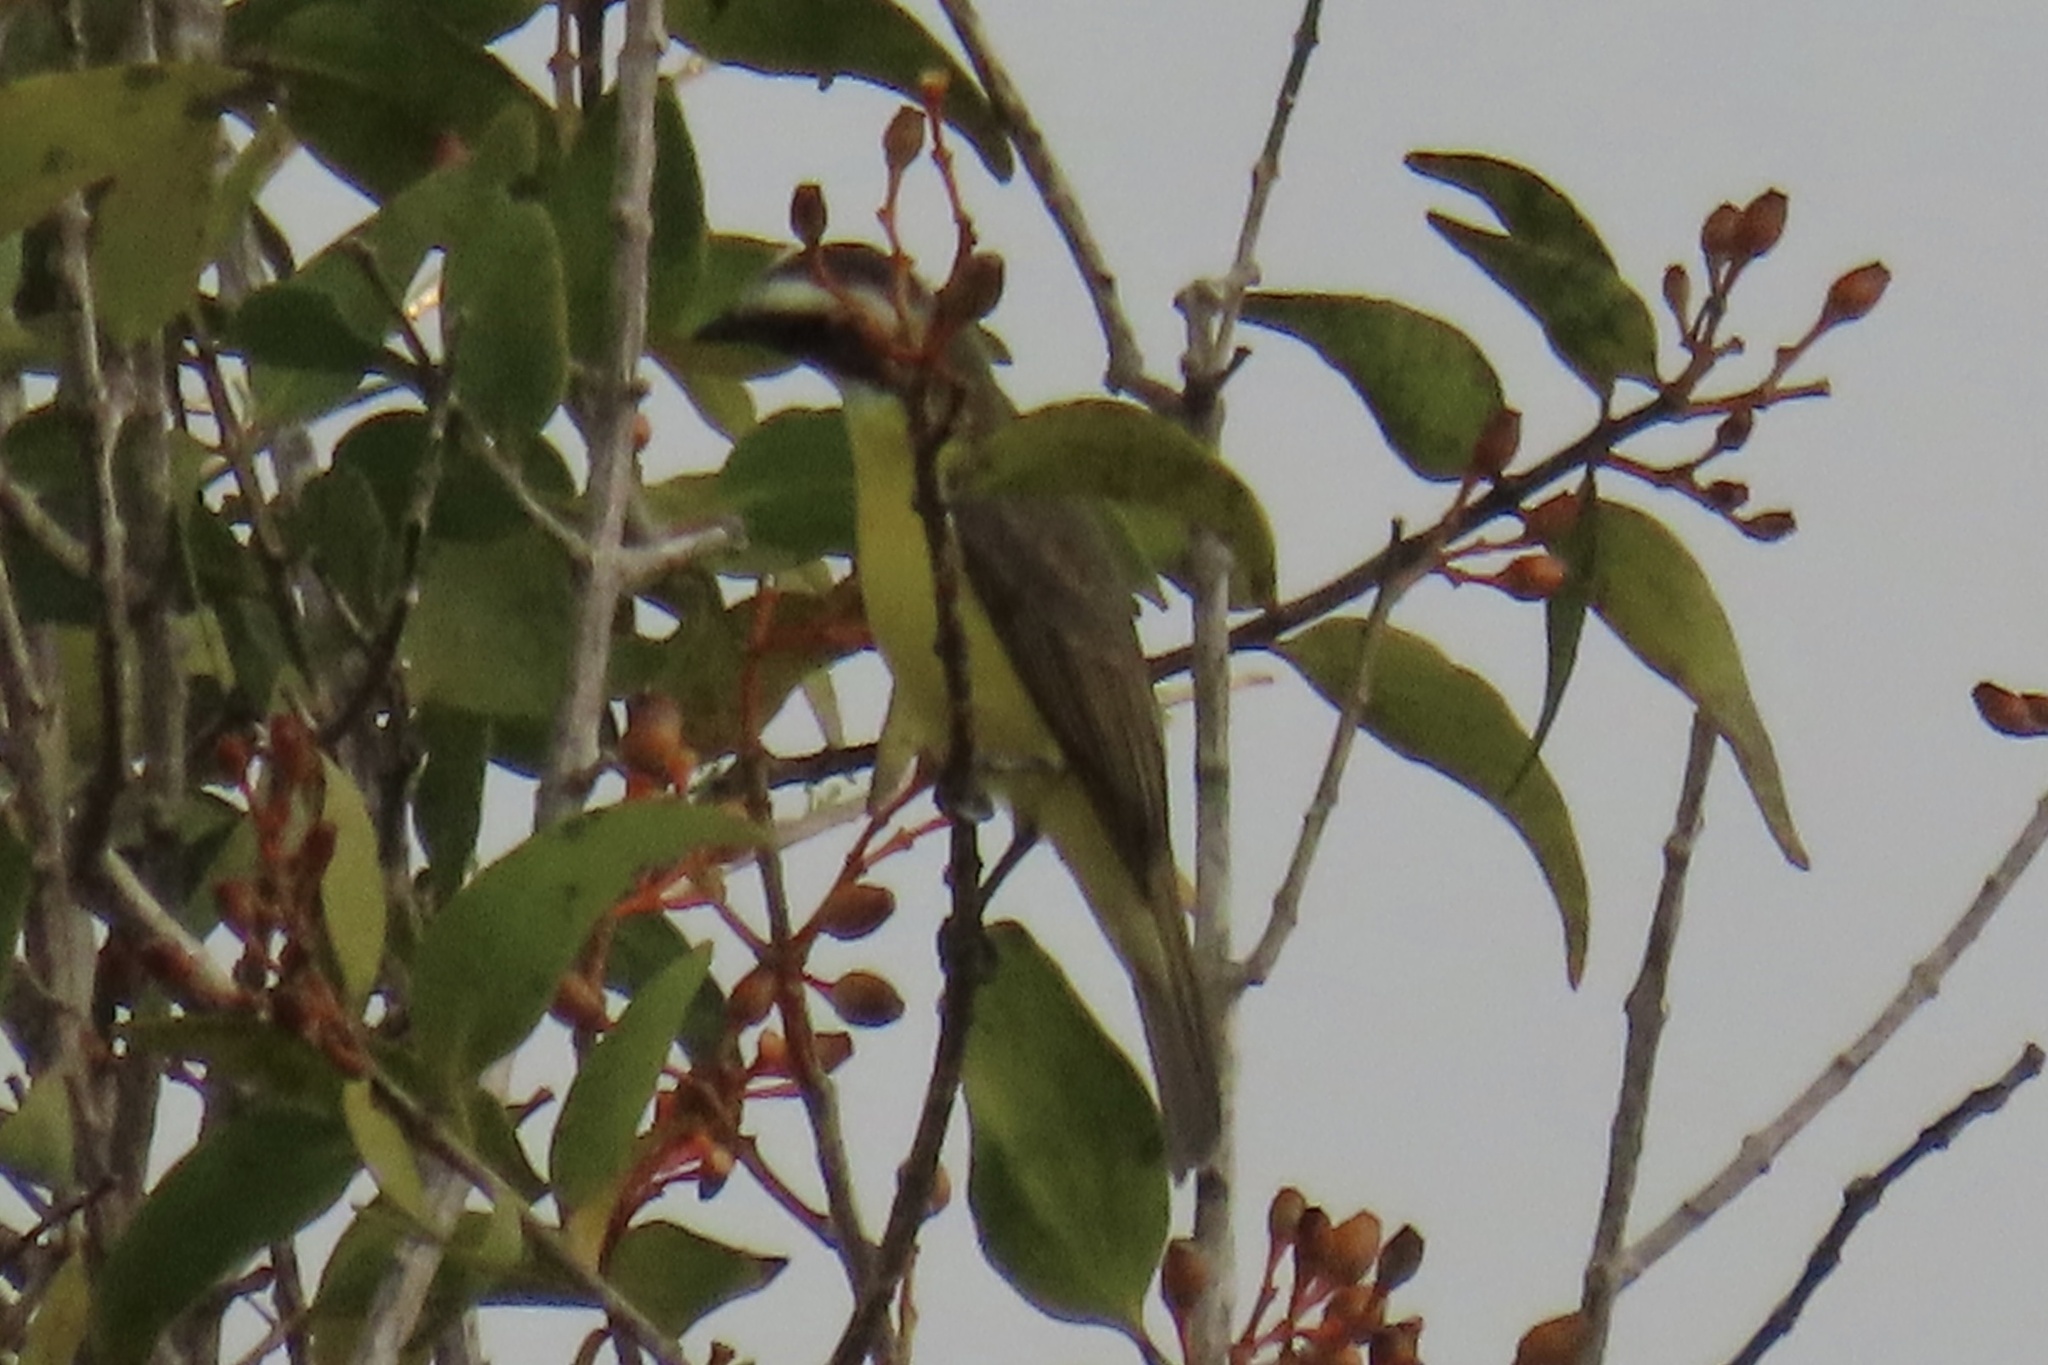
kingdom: Animalia
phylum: Chordata
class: Aves
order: Passeriformes
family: Tyrannidae
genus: Myiozetetes
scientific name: Myiozetetes similis
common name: Social flycatcher
